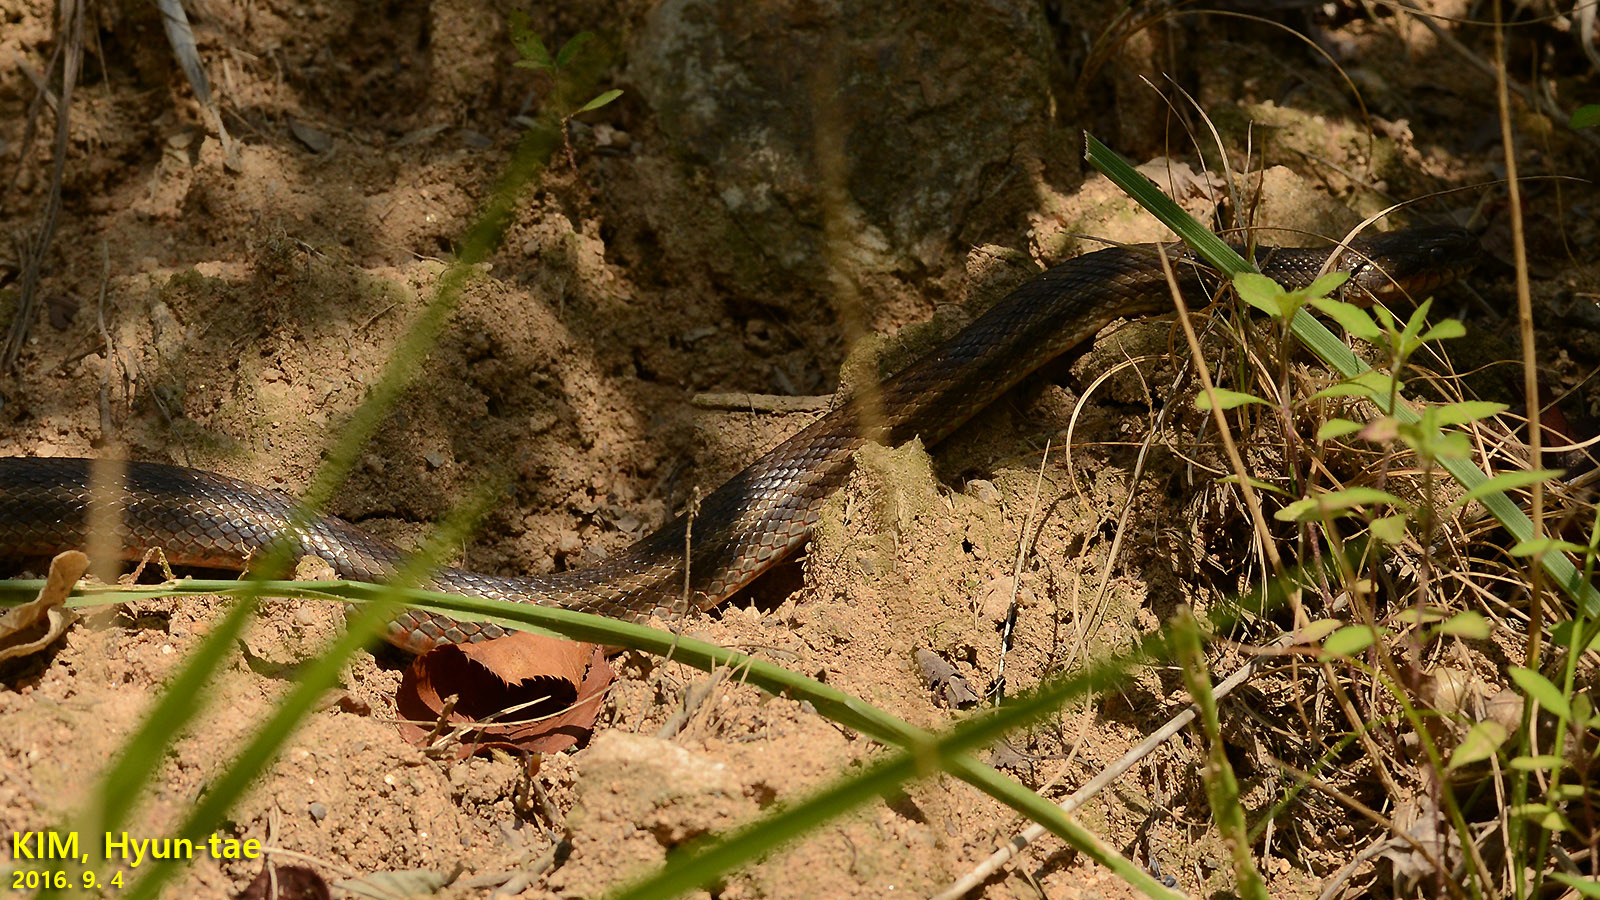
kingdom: Animalia
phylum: Chordata
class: Squamata
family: Colubridae
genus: Elaphe
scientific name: Elaphe dione
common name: Dione ratsnake
